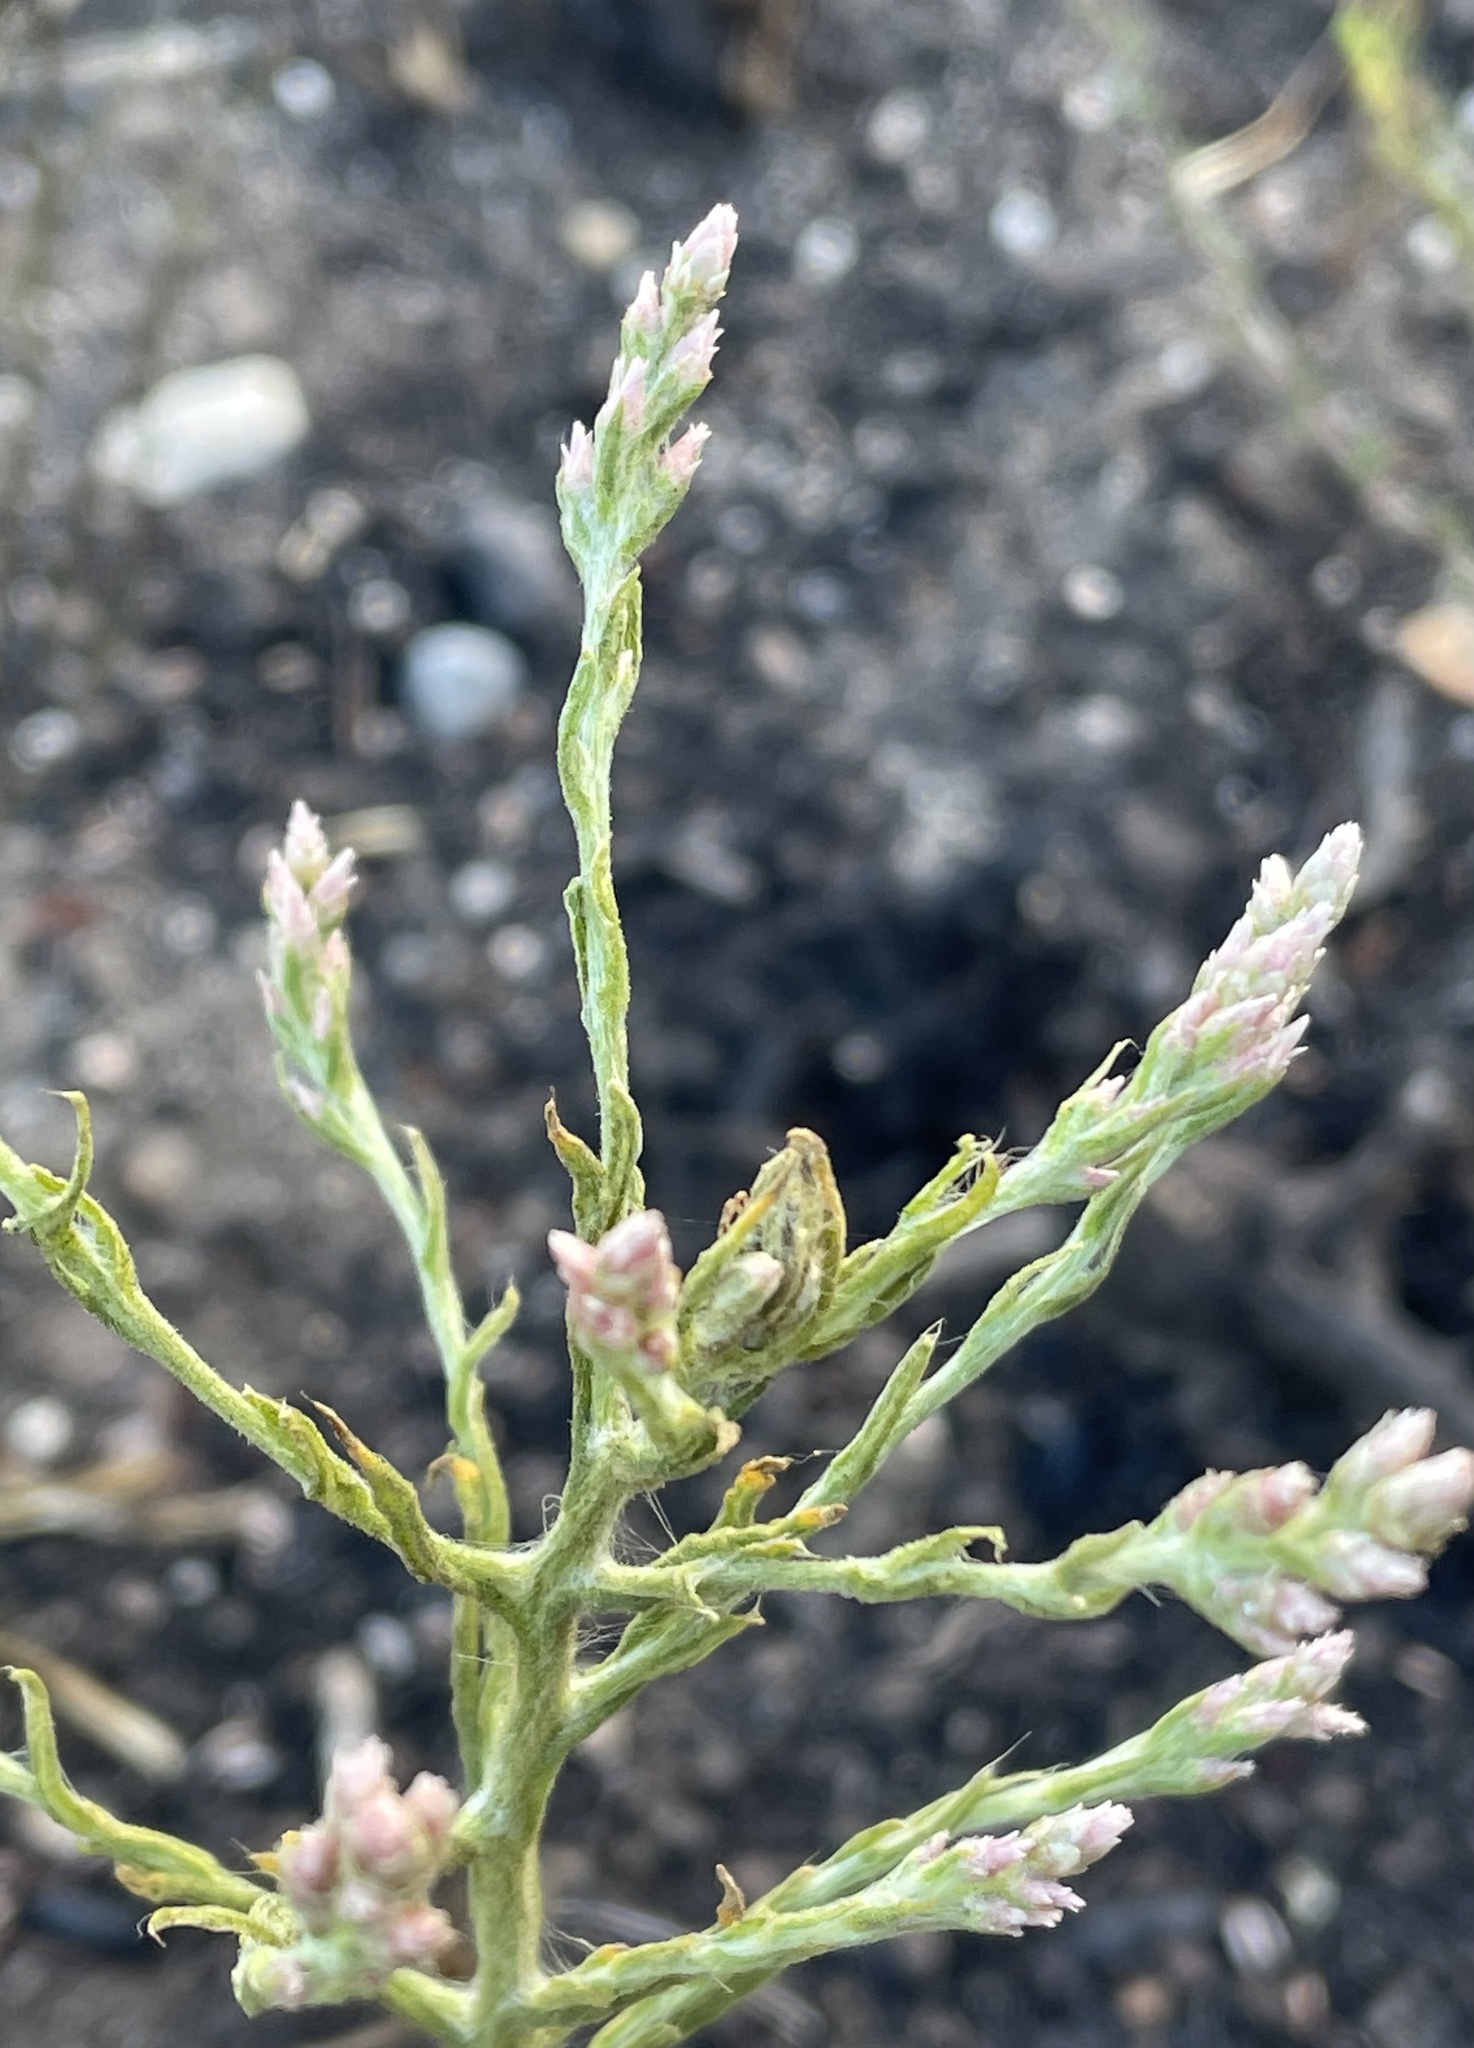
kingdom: Plantae
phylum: Tracheophyta
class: Magnoliopsida
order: Asterales
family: Asteraceae
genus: Pseudognaphalium
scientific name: Pseudognaphalium ramosissimum
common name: Pink rabbit-tobacco
